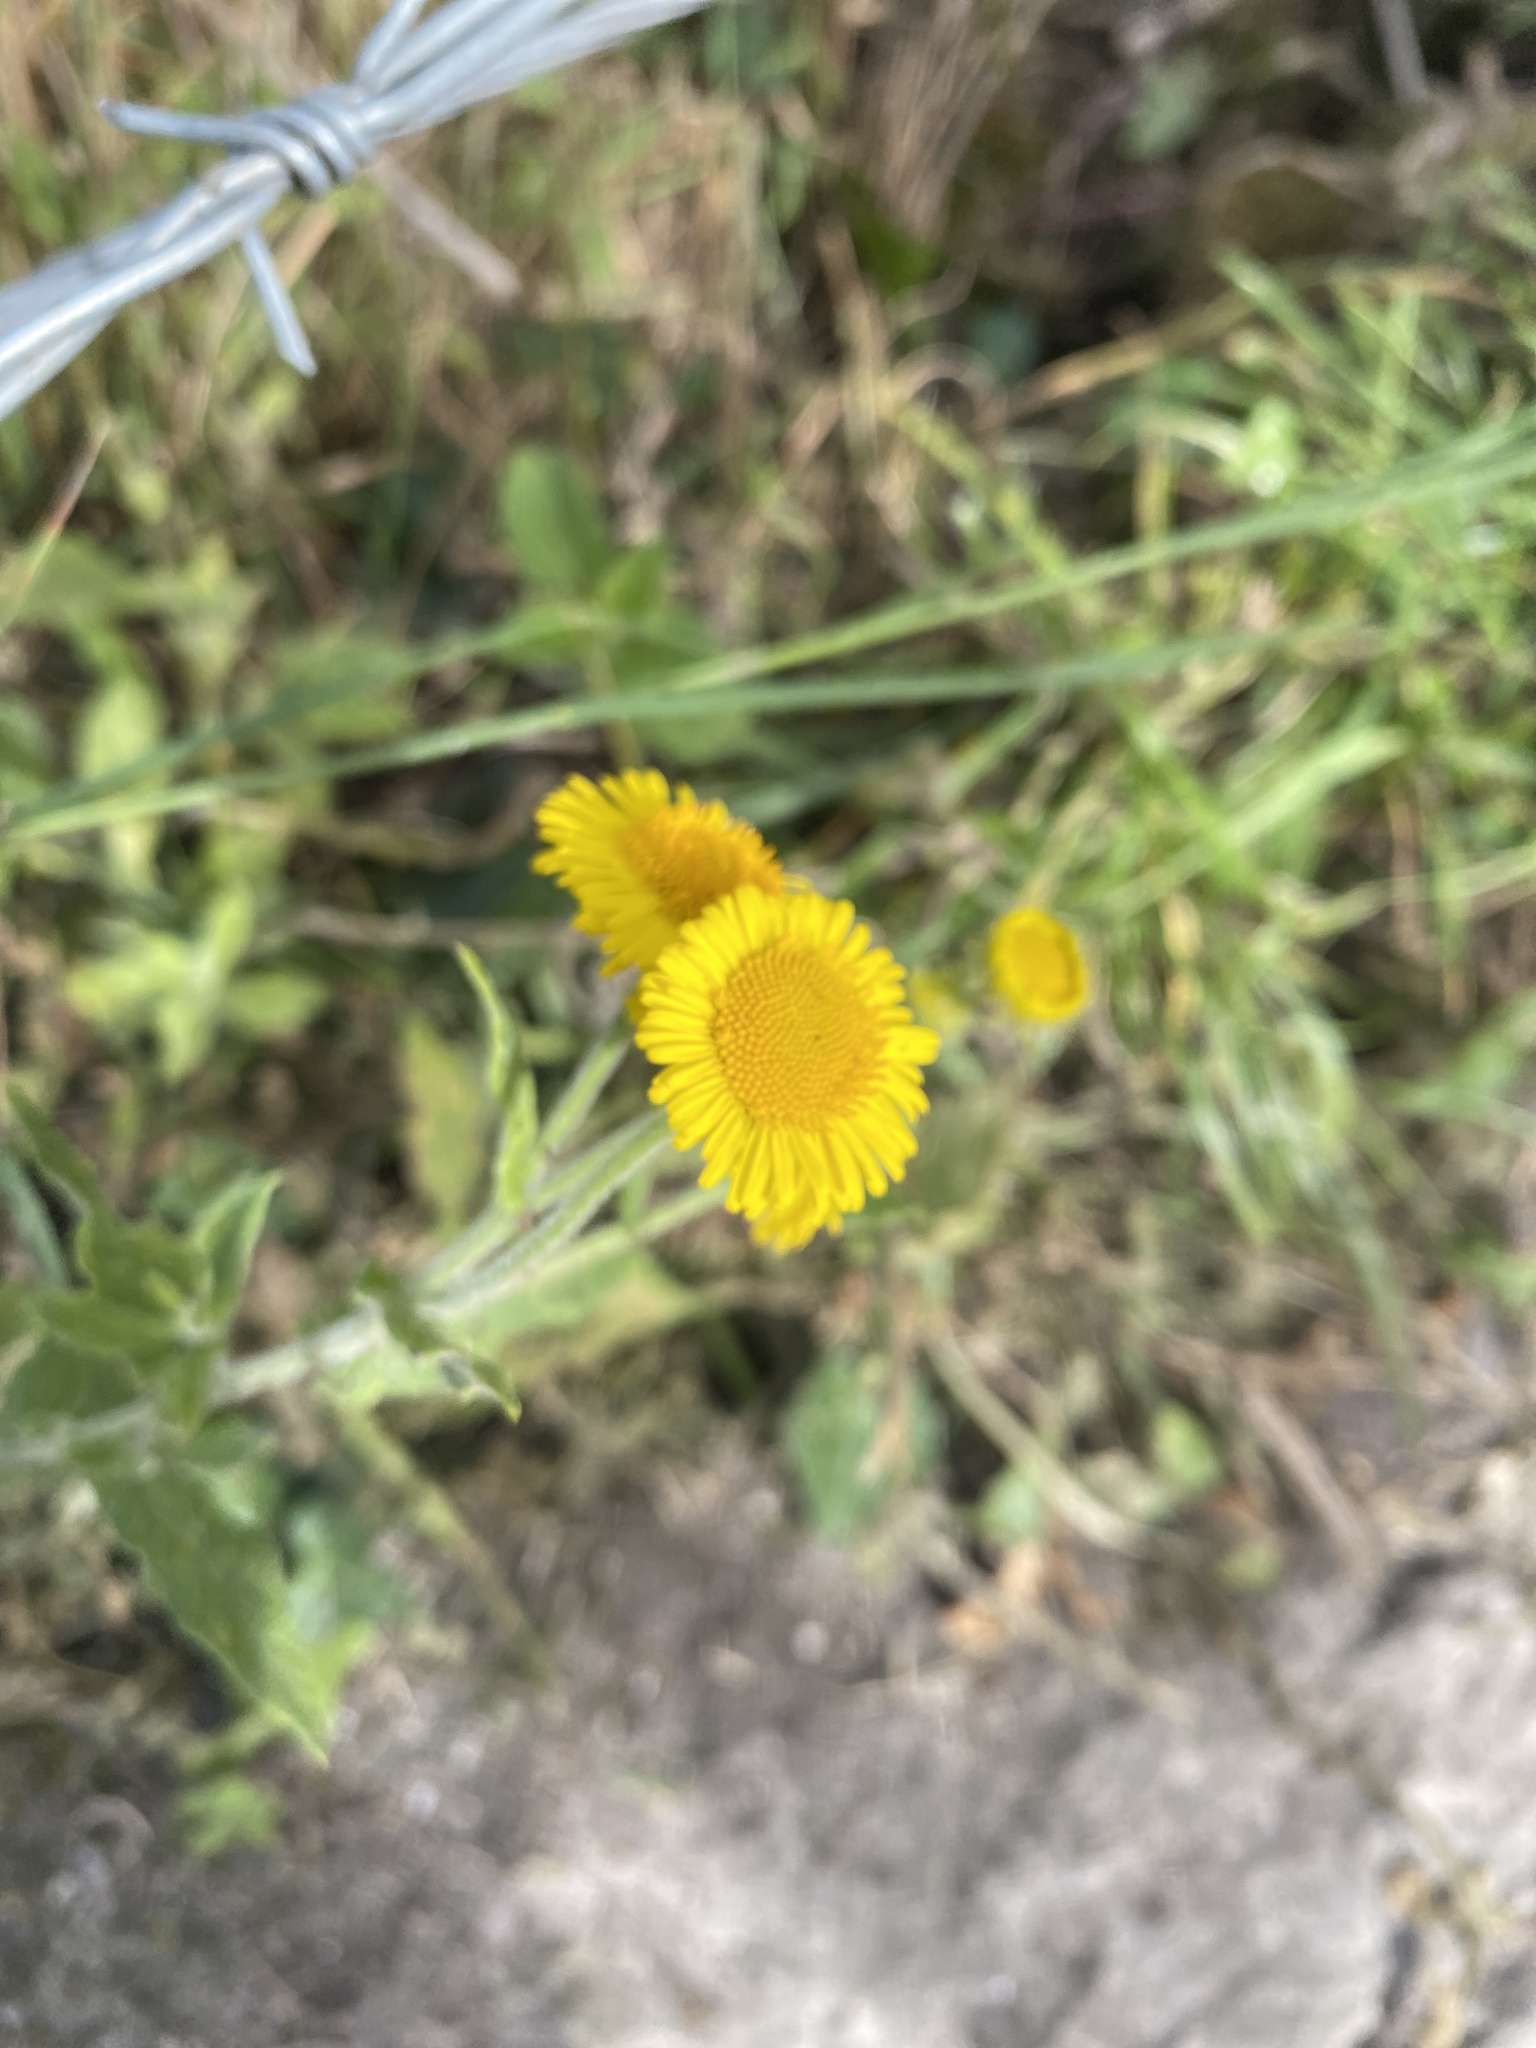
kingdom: Plantae
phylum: Tracheophyta
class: Magnoliopsida
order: Asterales
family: Asteraceae
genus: Pulicaria
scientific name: Pulicaria dysenterica
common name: Common fleabane
